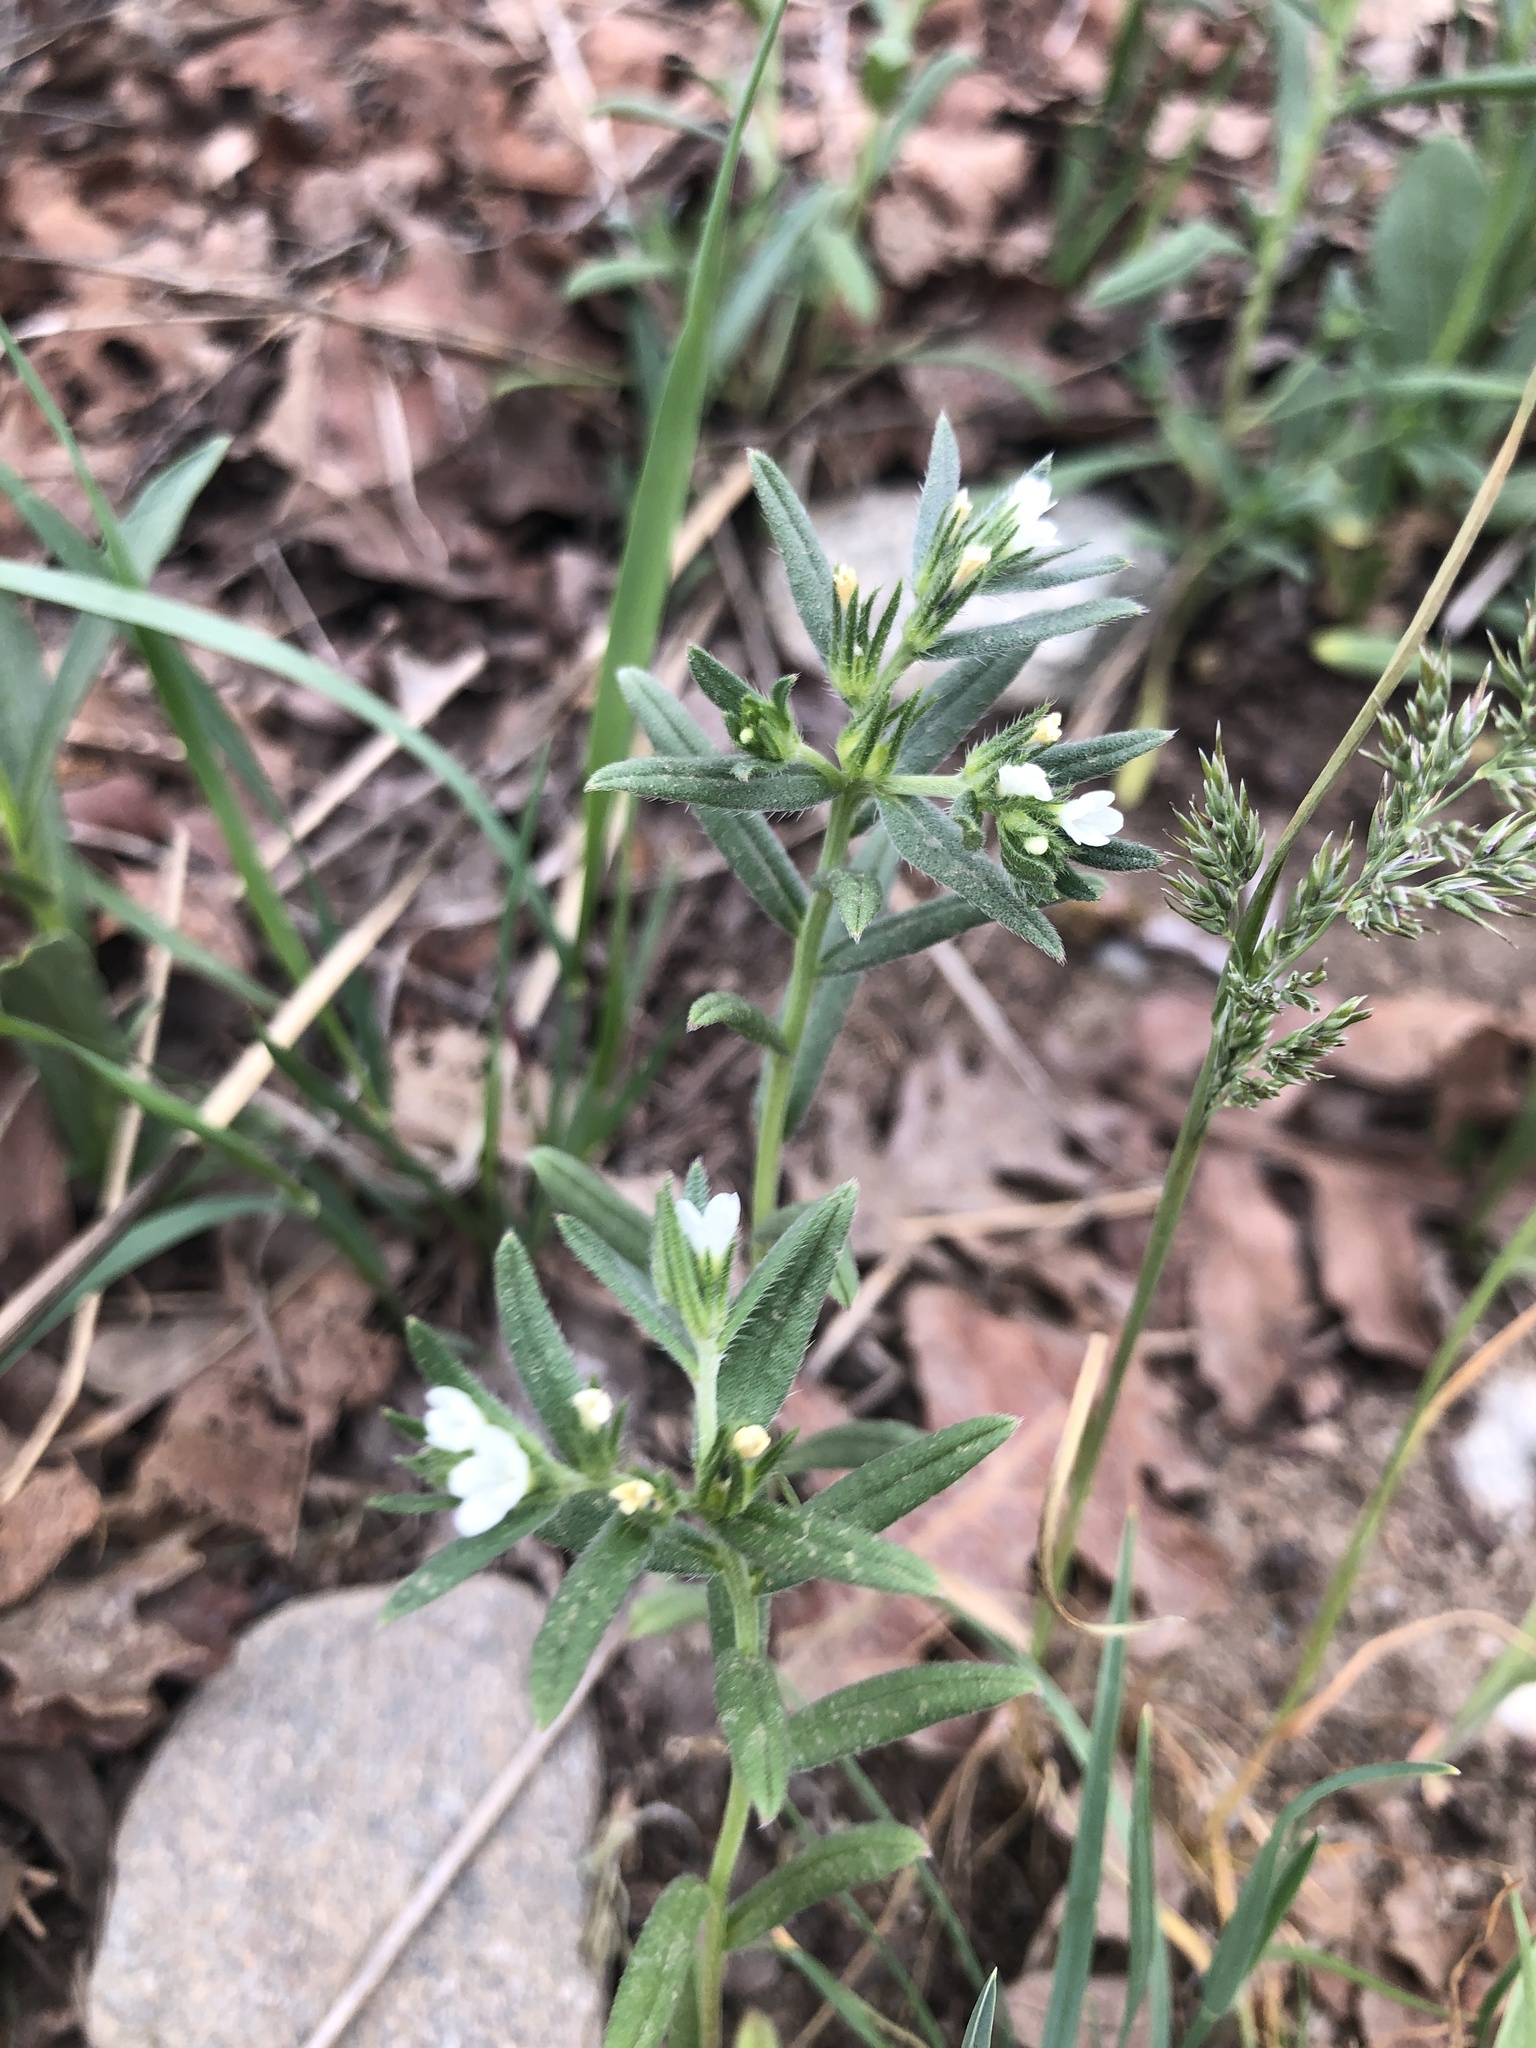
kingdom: Plantae
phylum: Tracheophyta
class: Magnoliopsida
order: Boraginales
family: Boraginaceae
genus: Buglossoides
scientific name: Buglossoides arvensis
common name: Corn gromwell
